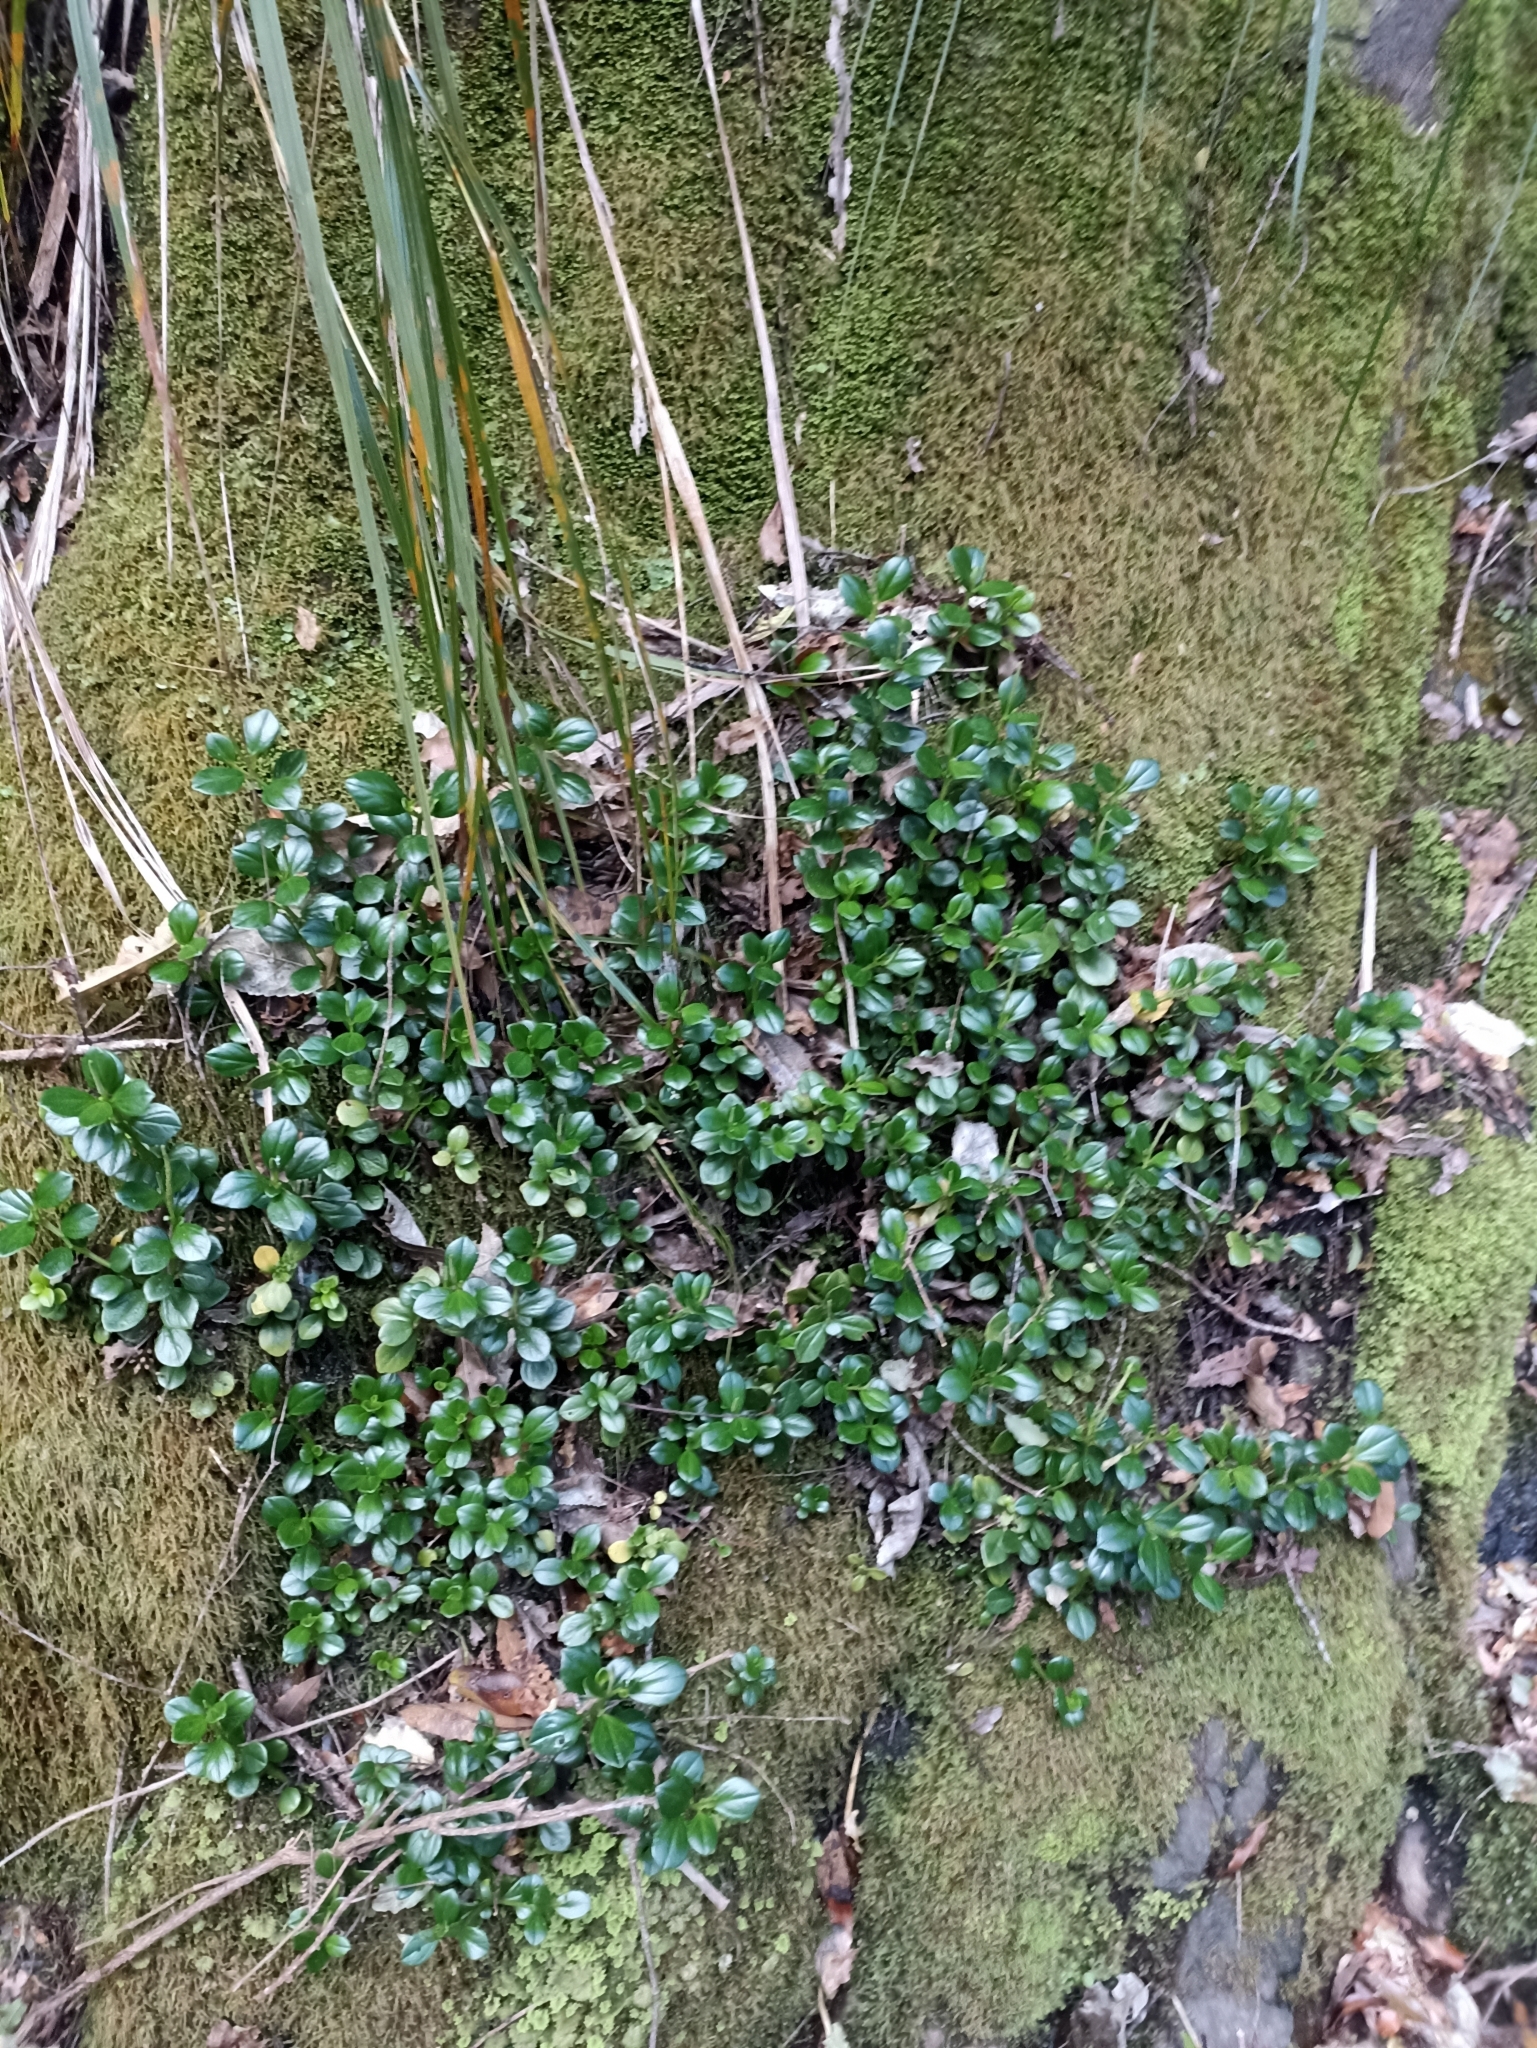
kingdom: Plantae
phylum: Tracheophyta
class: Magnoliopsida
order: Piperales
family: Piperaceae
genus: Peperomia
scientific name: Peperomia urvilleana
